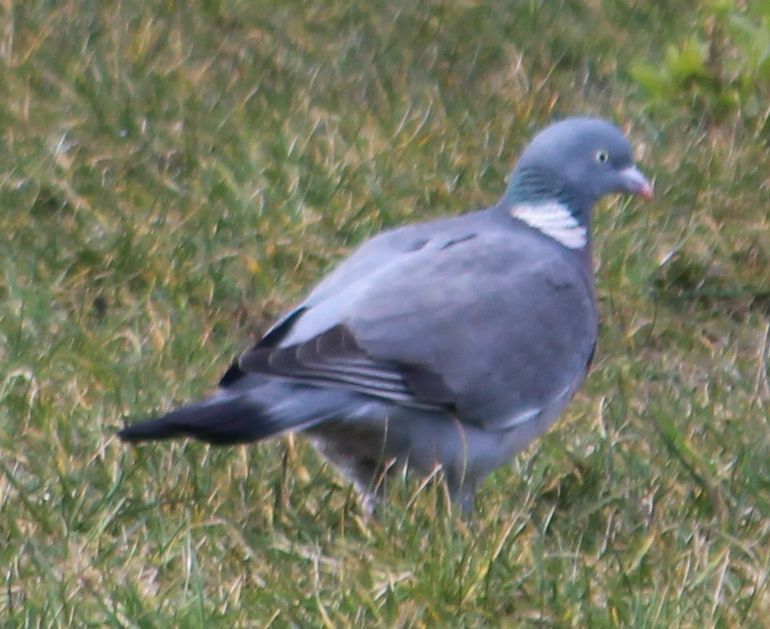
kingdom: Animalia
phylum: Chordata
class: Aves
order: Columbiformes
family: Columbidae
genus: Columba
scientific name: Columba palumbus
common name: Common wood pigeon
